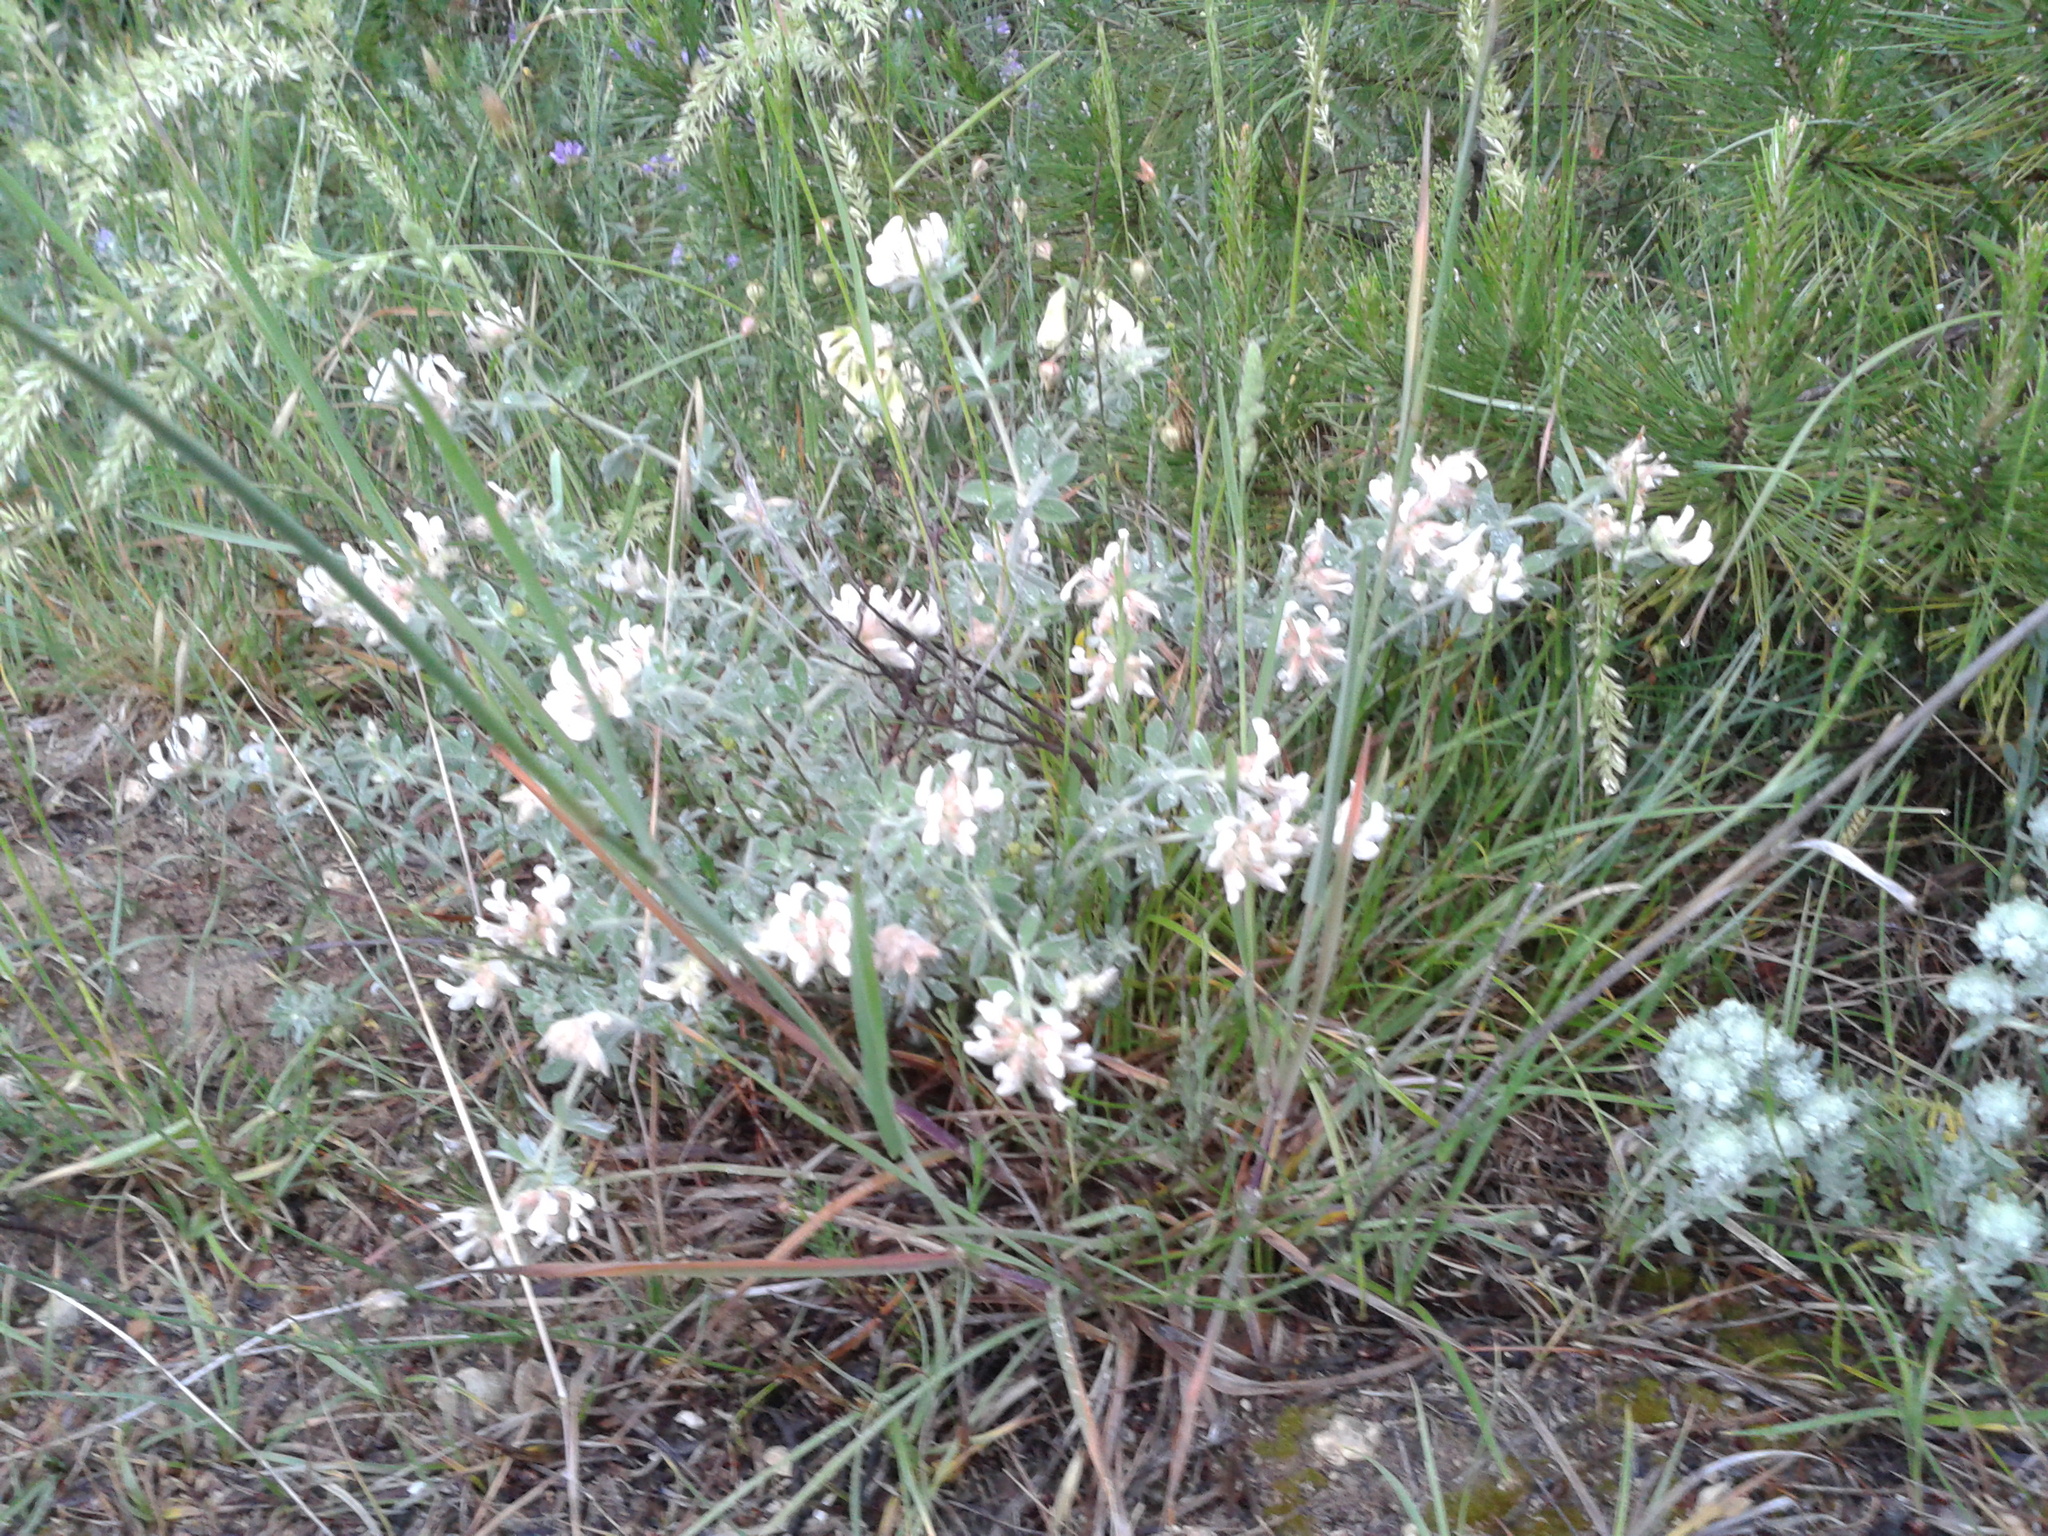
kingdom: Plantae
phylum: Tracheophyta
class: Magnoliopsida
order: Fabales
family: Fabaceae
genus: Lotus
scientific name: Lotus hirsutus
